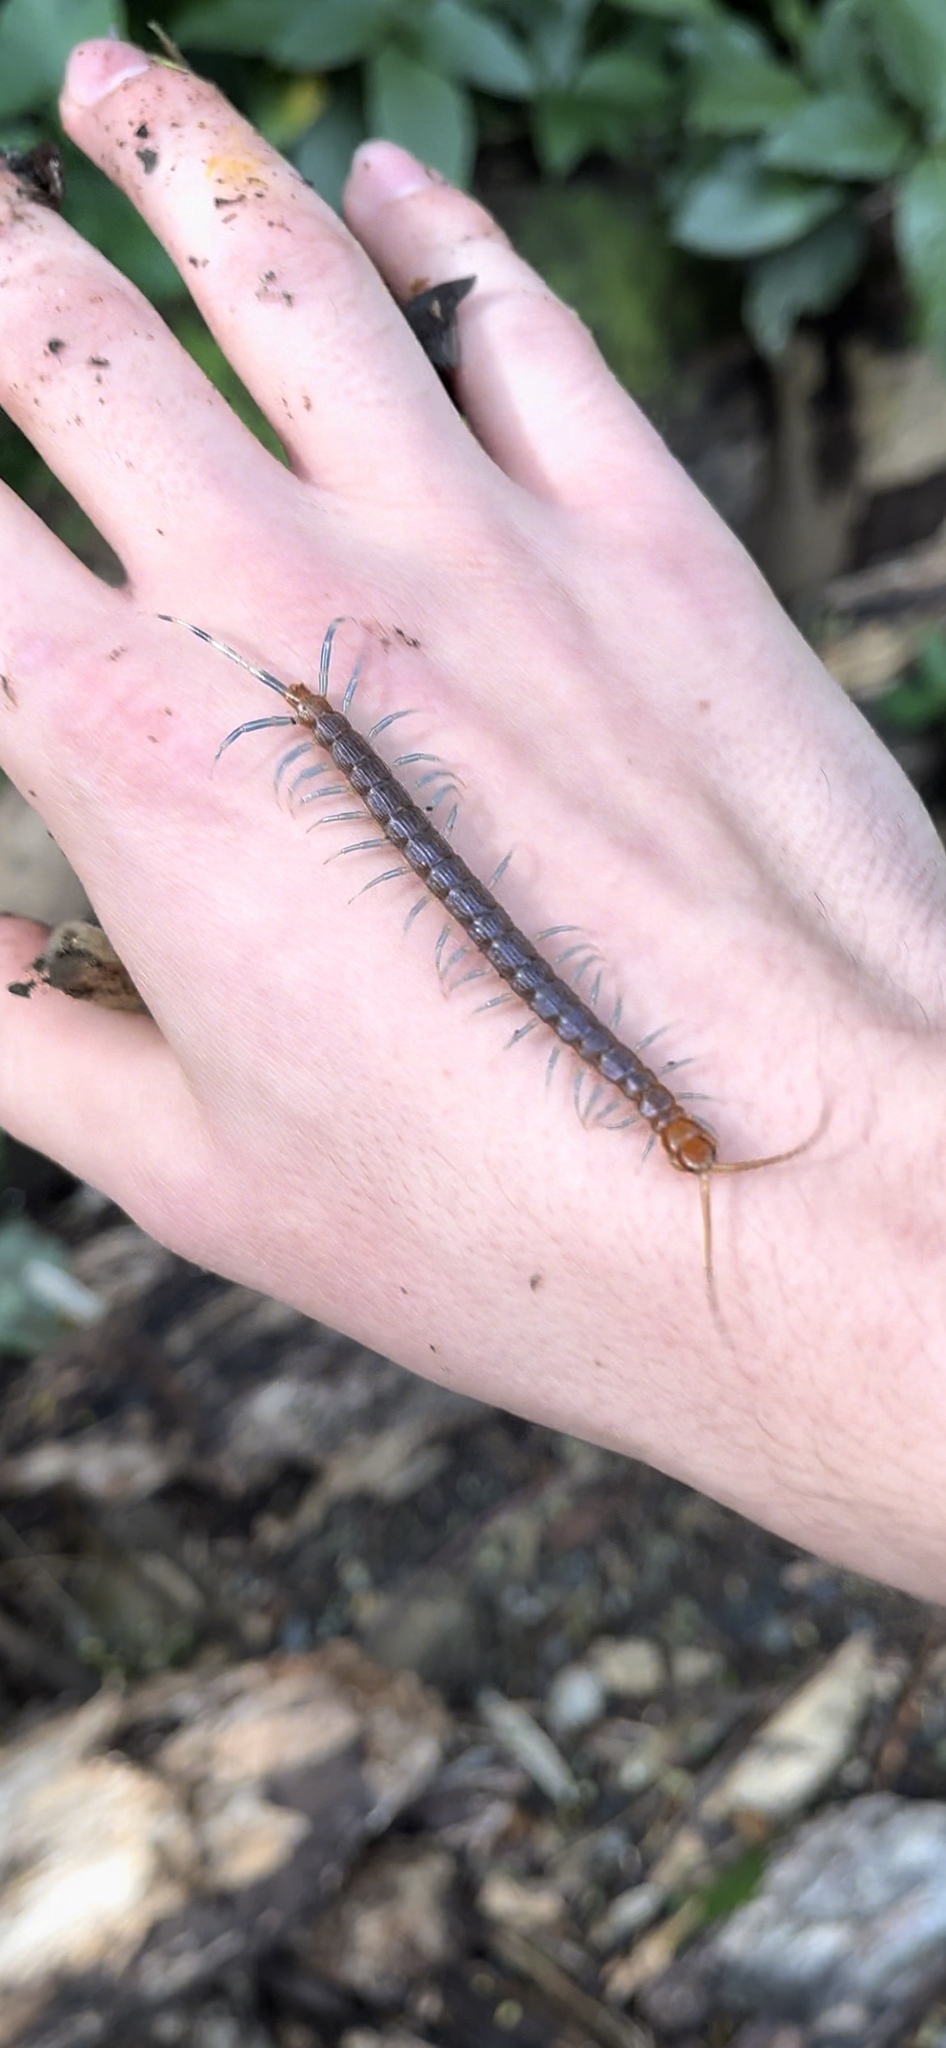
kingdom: Animalia
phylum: Arthropoda
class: Chilopoda
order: Scolopendromorpha
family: Scolopendridae
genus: Otostigmus
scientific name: Otostigmus scaber
